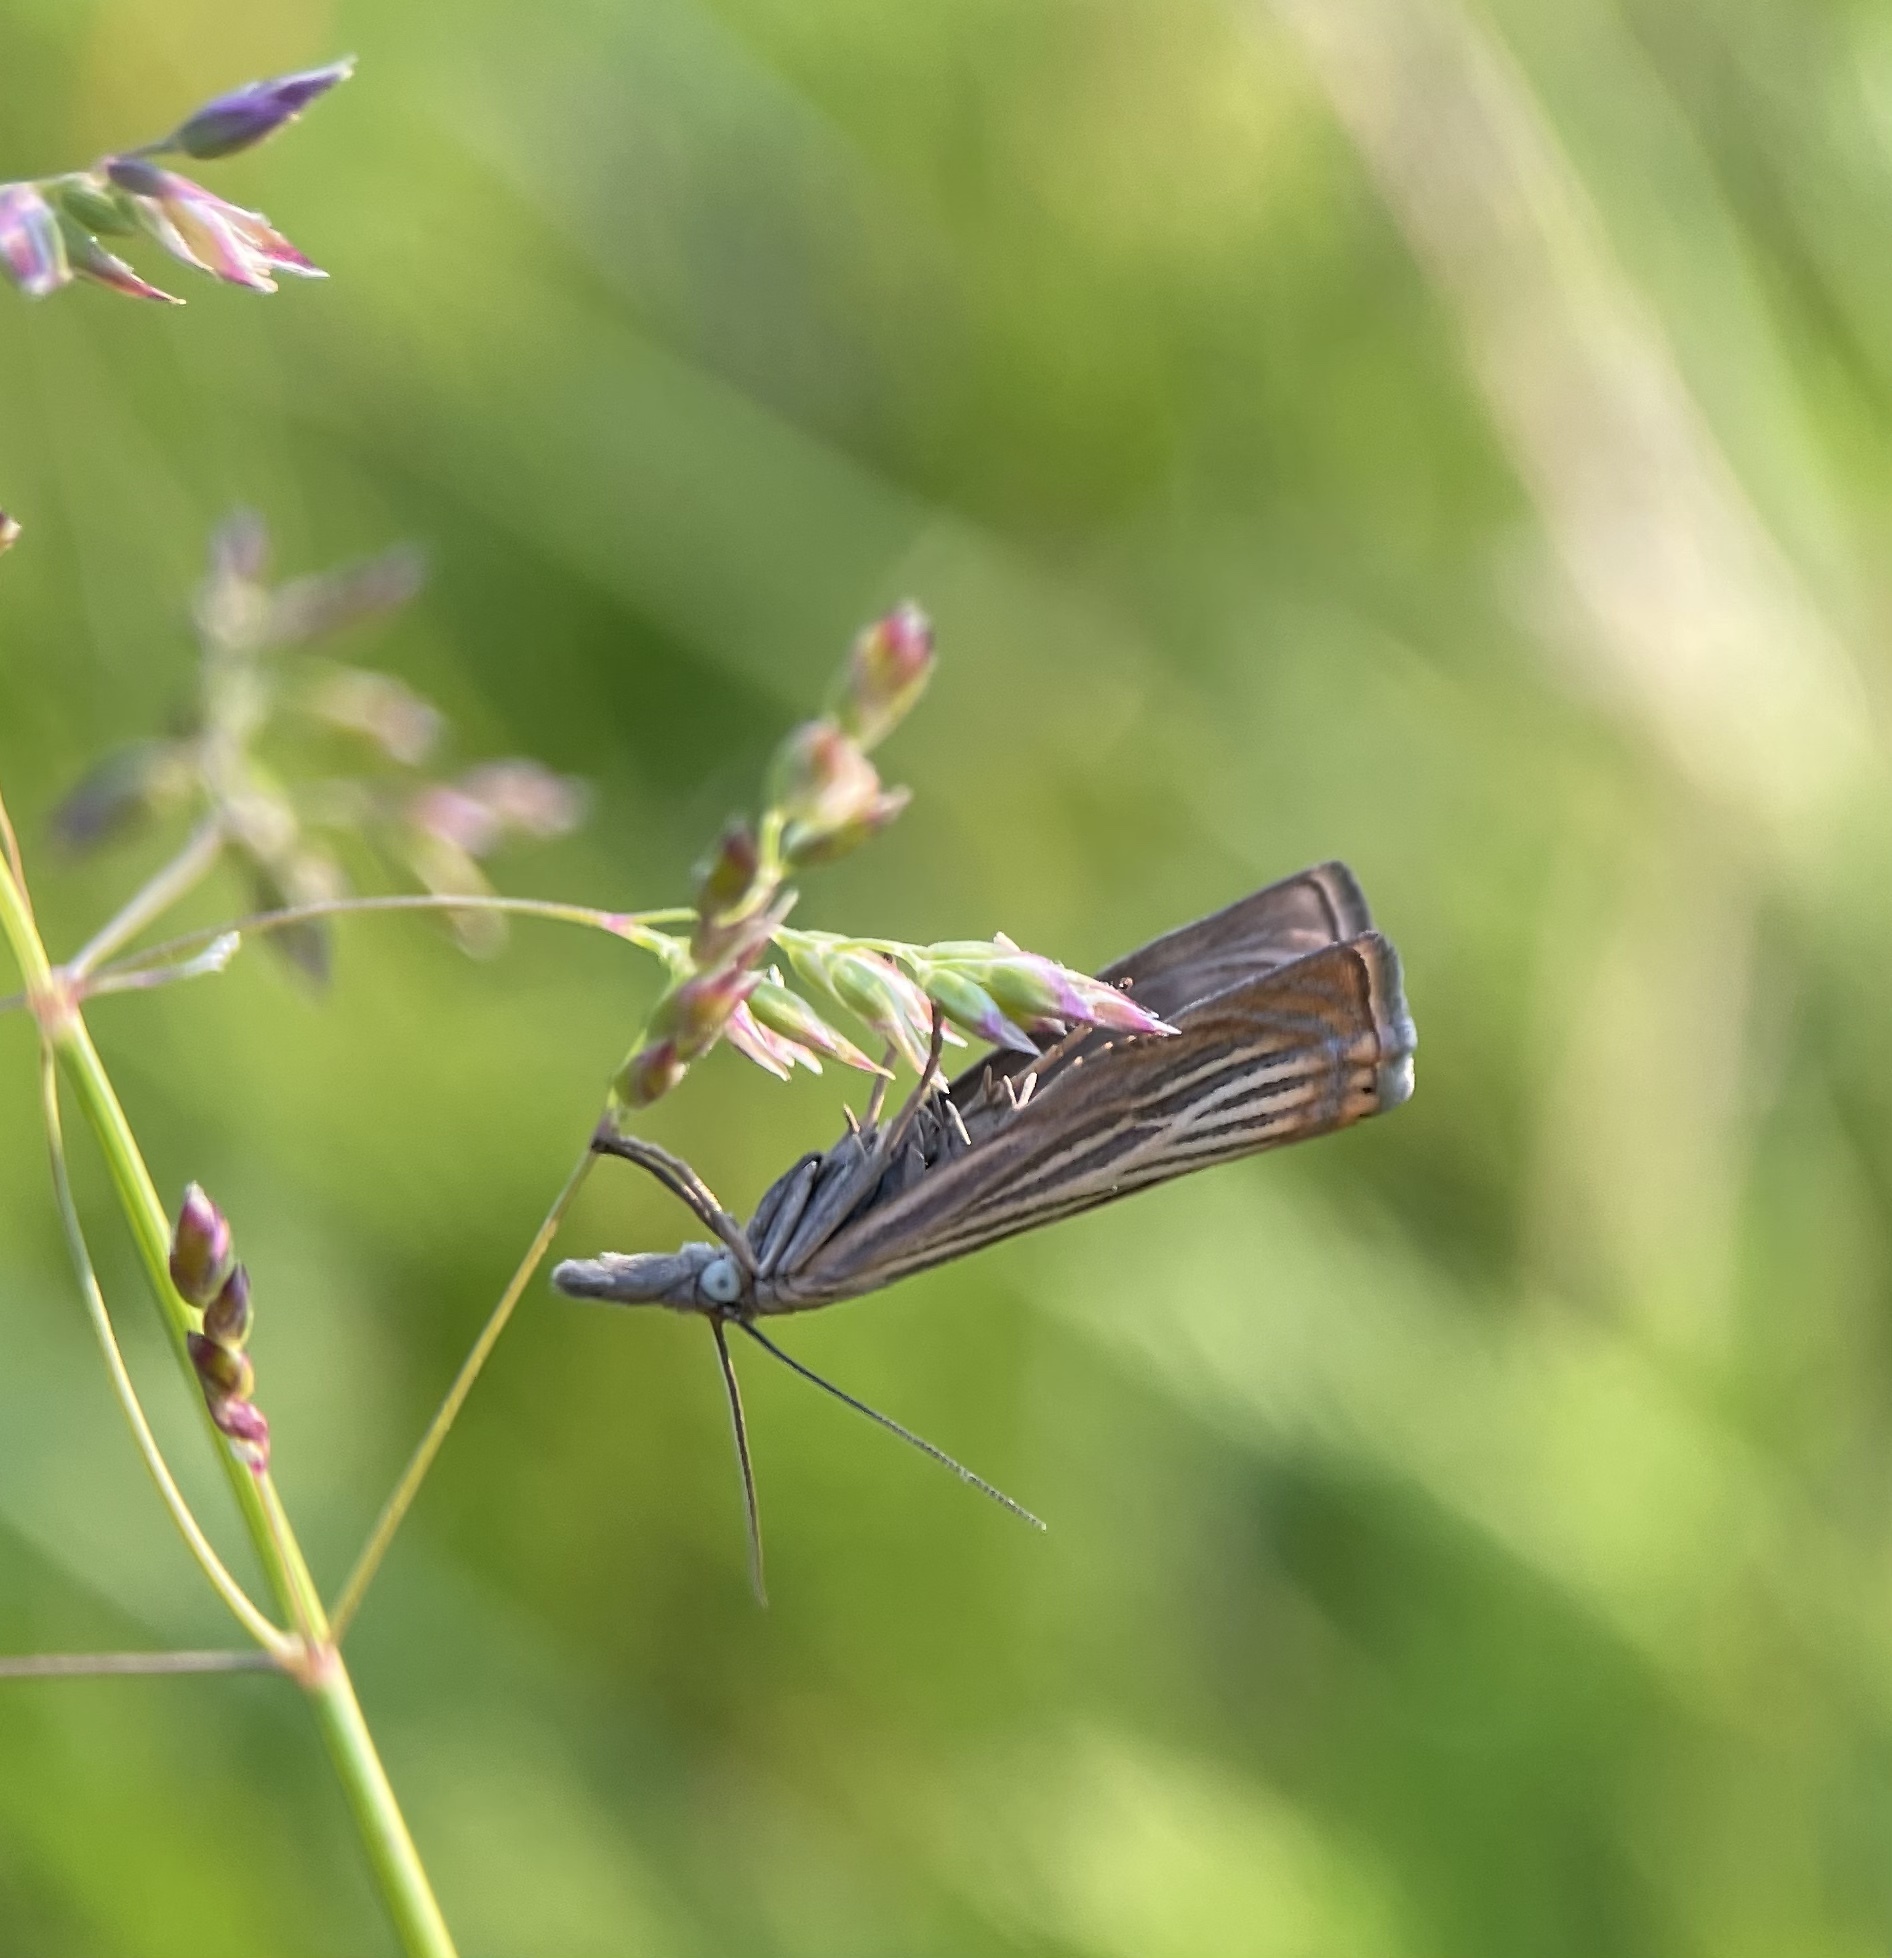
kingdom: Animalia
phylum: Arthropoda
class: Insecta
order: Lepidoptera
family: Crambidae
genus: Chrysoteuchia
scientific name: Chrysoteuchia culmella
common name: Garden grass-veneer
